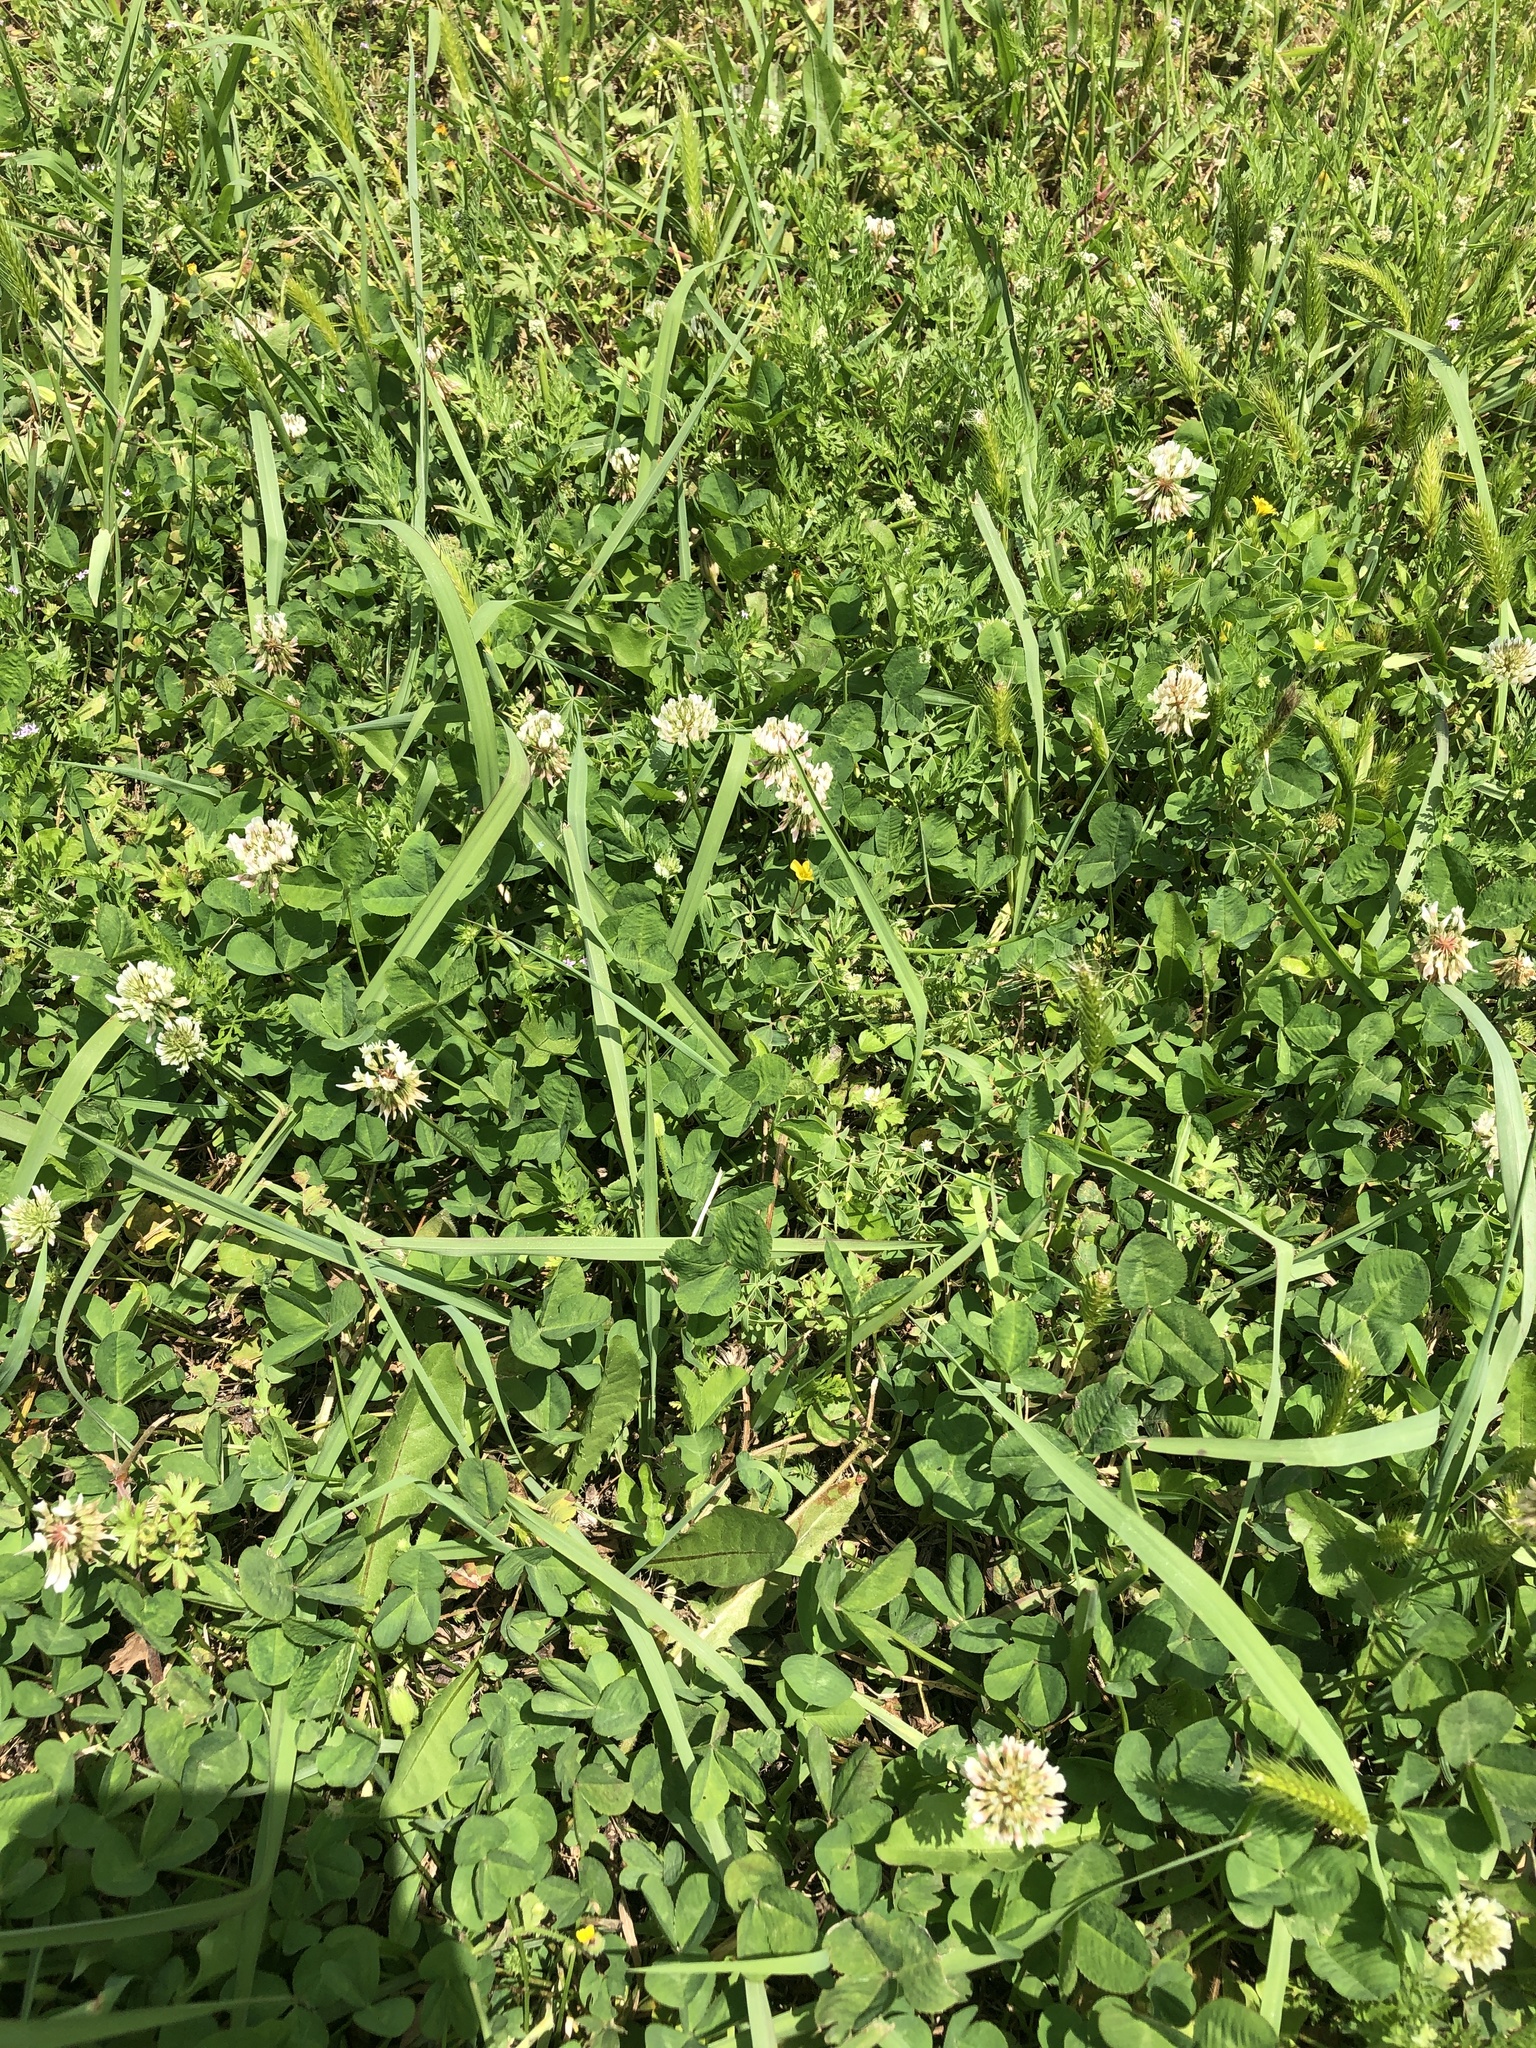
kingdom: Plantae
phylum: Tracheophyta
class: Magnoliopsida
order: Fabales
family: Fabaceae
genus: Trifolium
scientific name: Trifolium repens
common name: White clover
